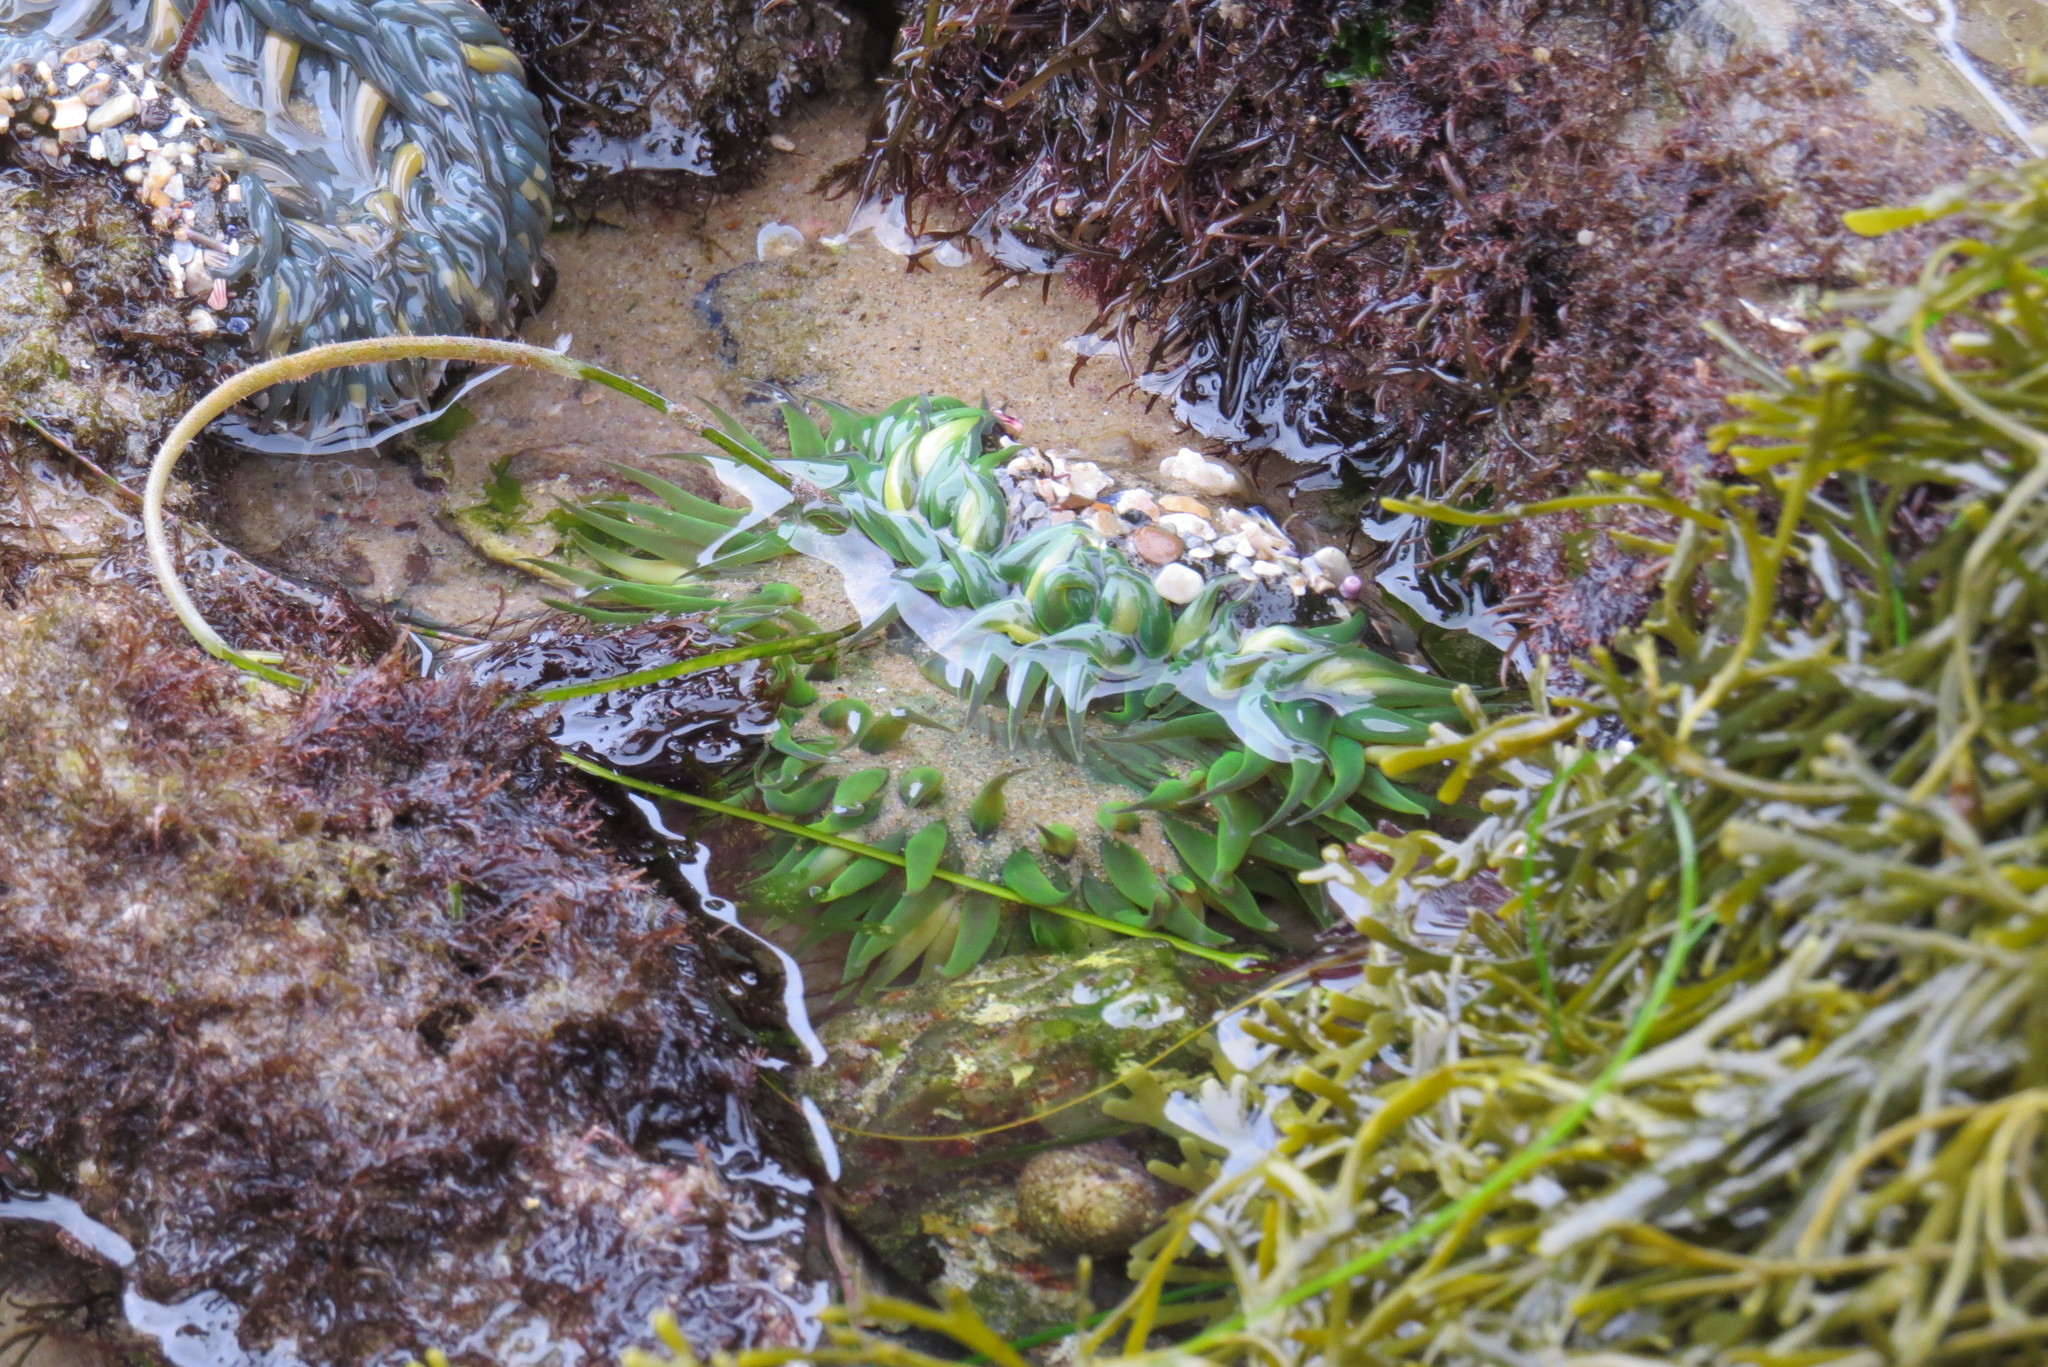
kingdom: Animalia
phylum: Cnidaria
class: Anthozoa
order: Actiniaria
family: Actiniidae
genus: Anthopleura
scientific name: Anthopleura sola
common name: Sun anemone
